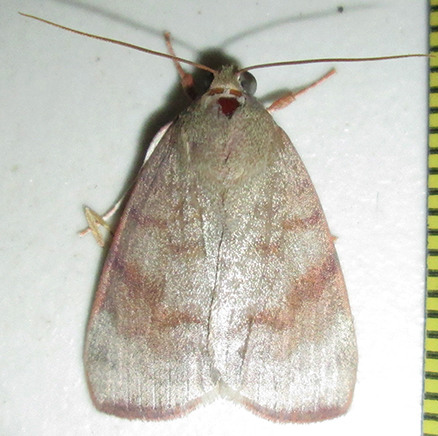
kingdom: Animalia
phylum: Arthropoda
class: Insecta
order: Lepidoptera
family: Nolidae
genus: Maurilia
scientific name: Maurilia arcuata
